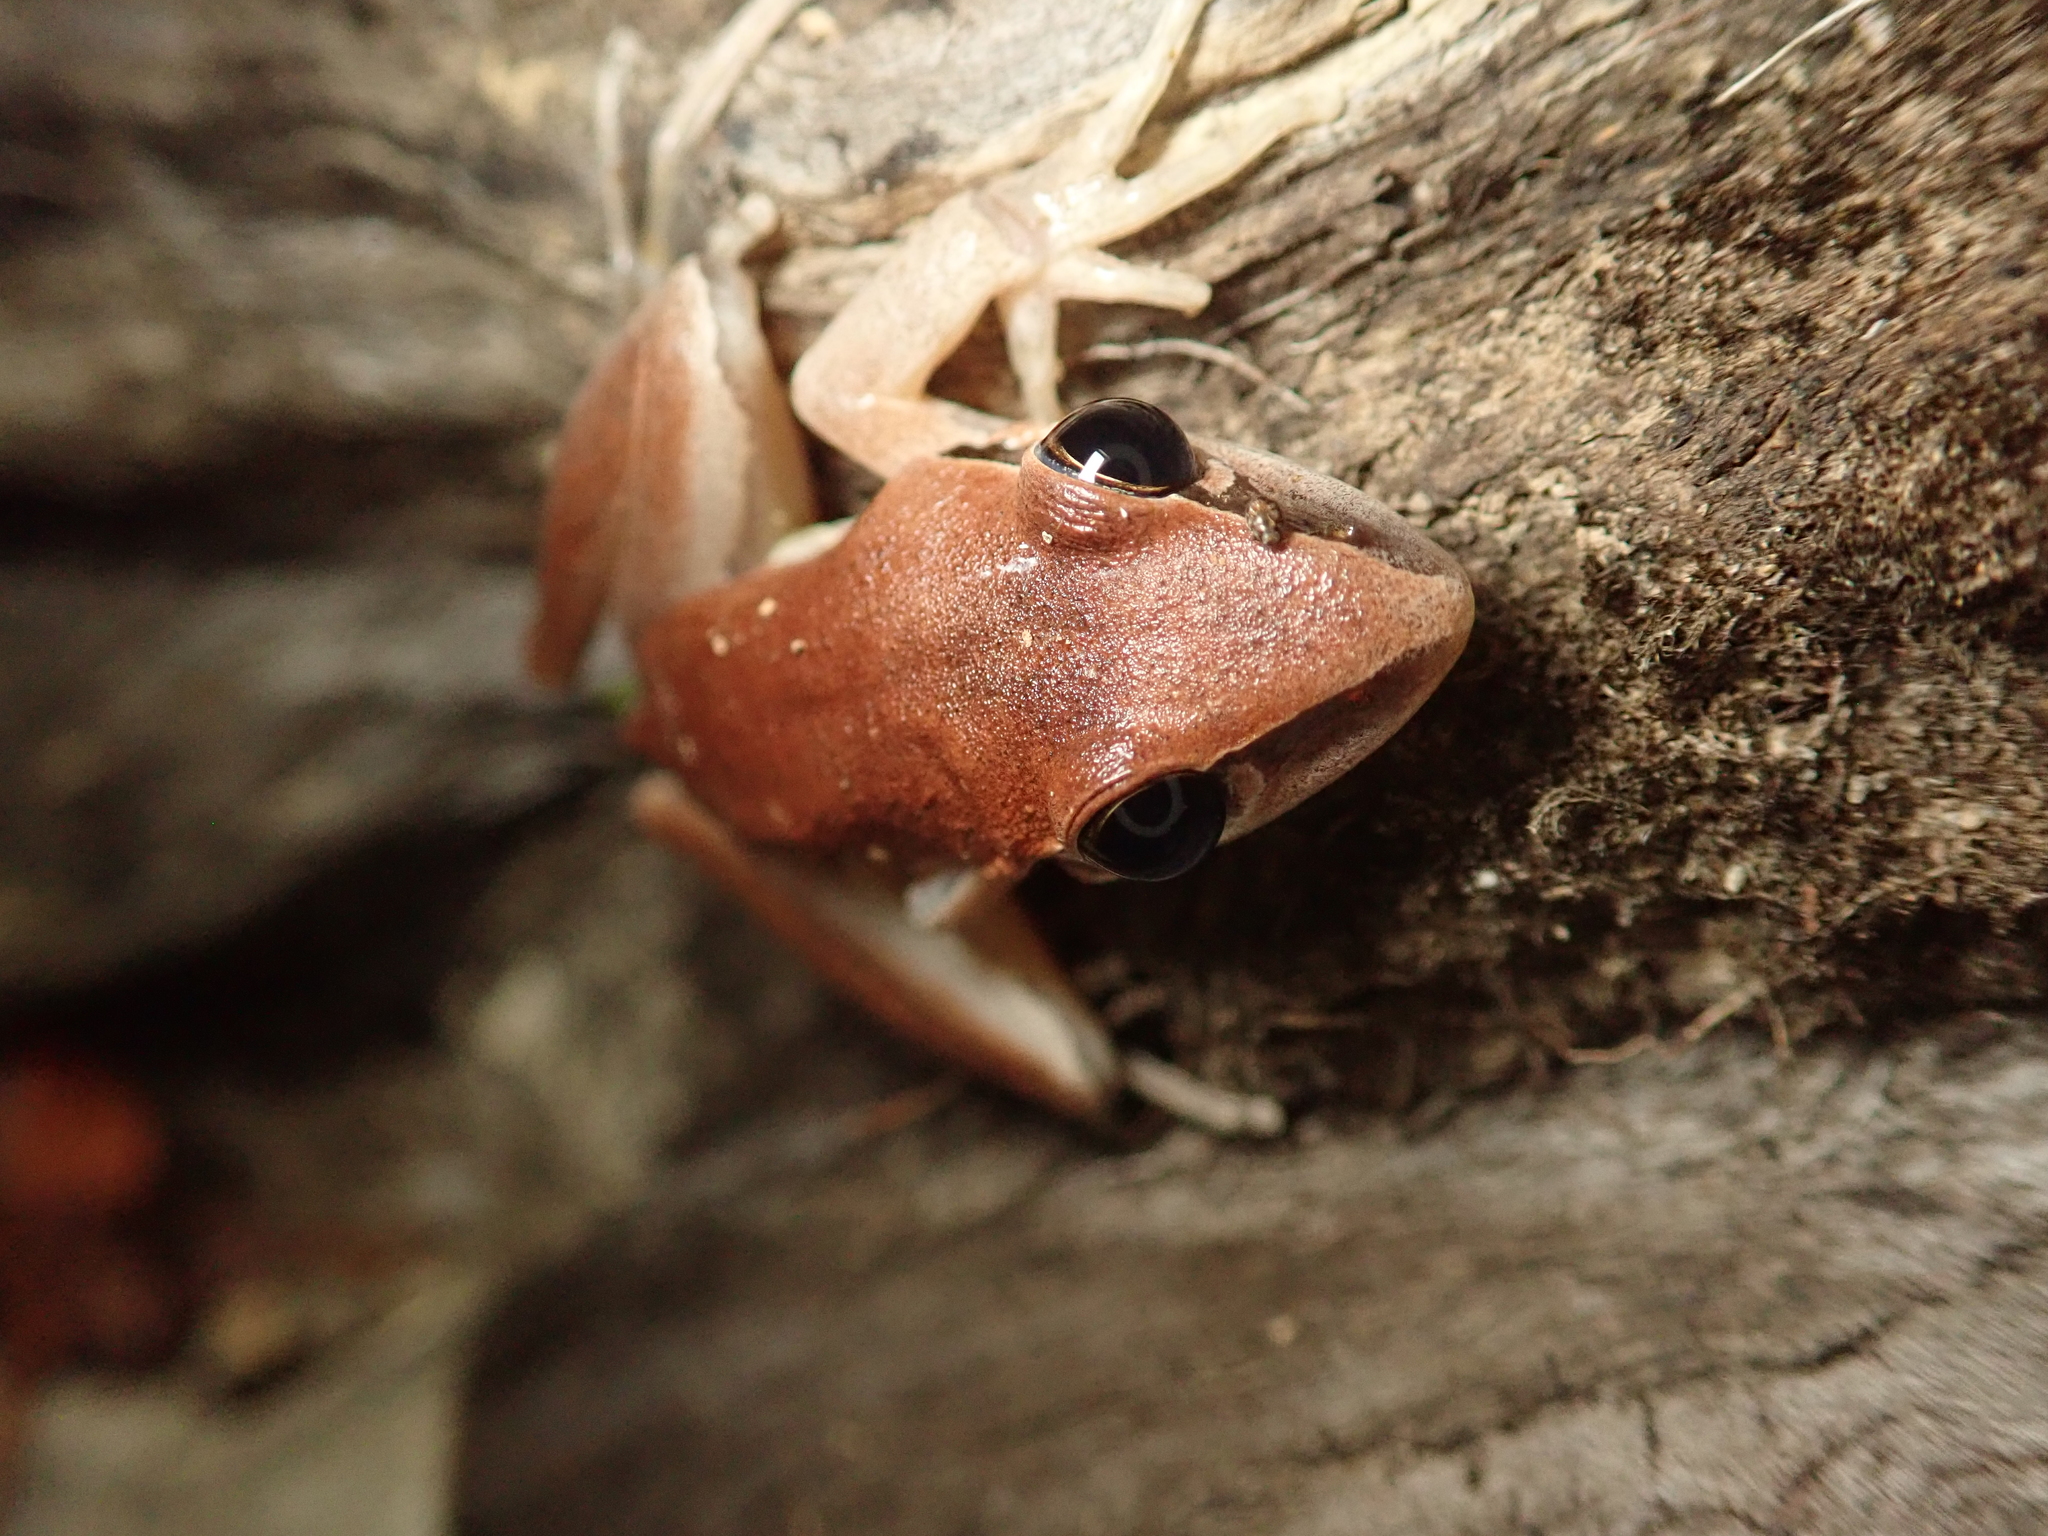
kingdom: Animalia
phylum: Chordata
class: Amphibia
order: Anura
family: Pelodryadidae
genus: Litoria
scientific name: Litoria nigrofrenata
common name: Bridle frog
